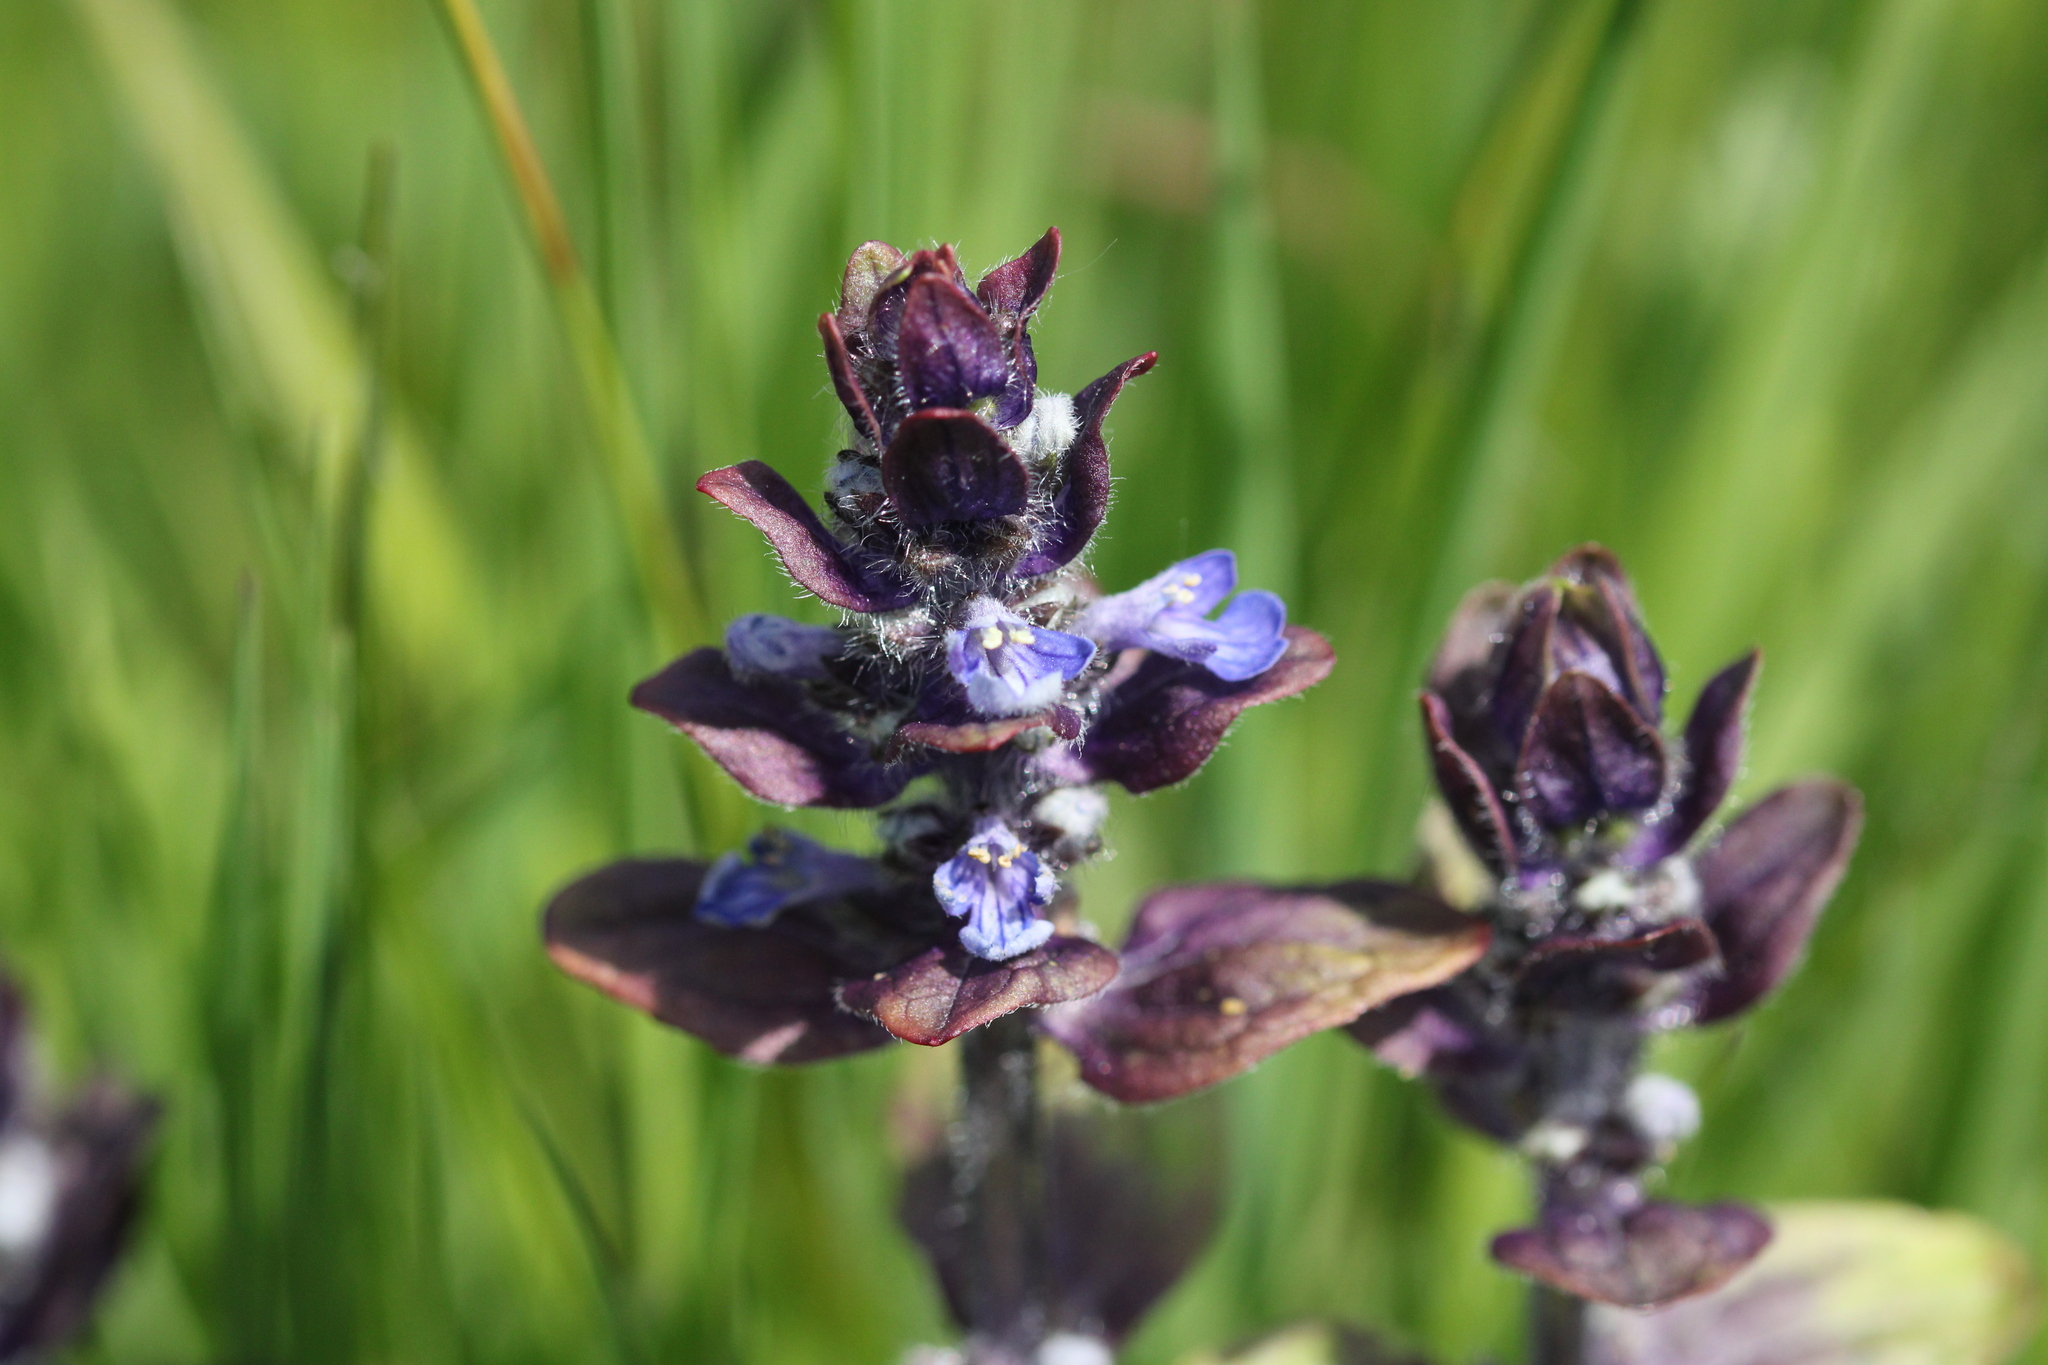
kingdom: Plantae
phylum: Tracheophyta
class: Magnoliopsida
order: Lamiales
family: Lamiaceae
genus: Ajuga
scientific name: Ajuga reptans
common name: Bugle
